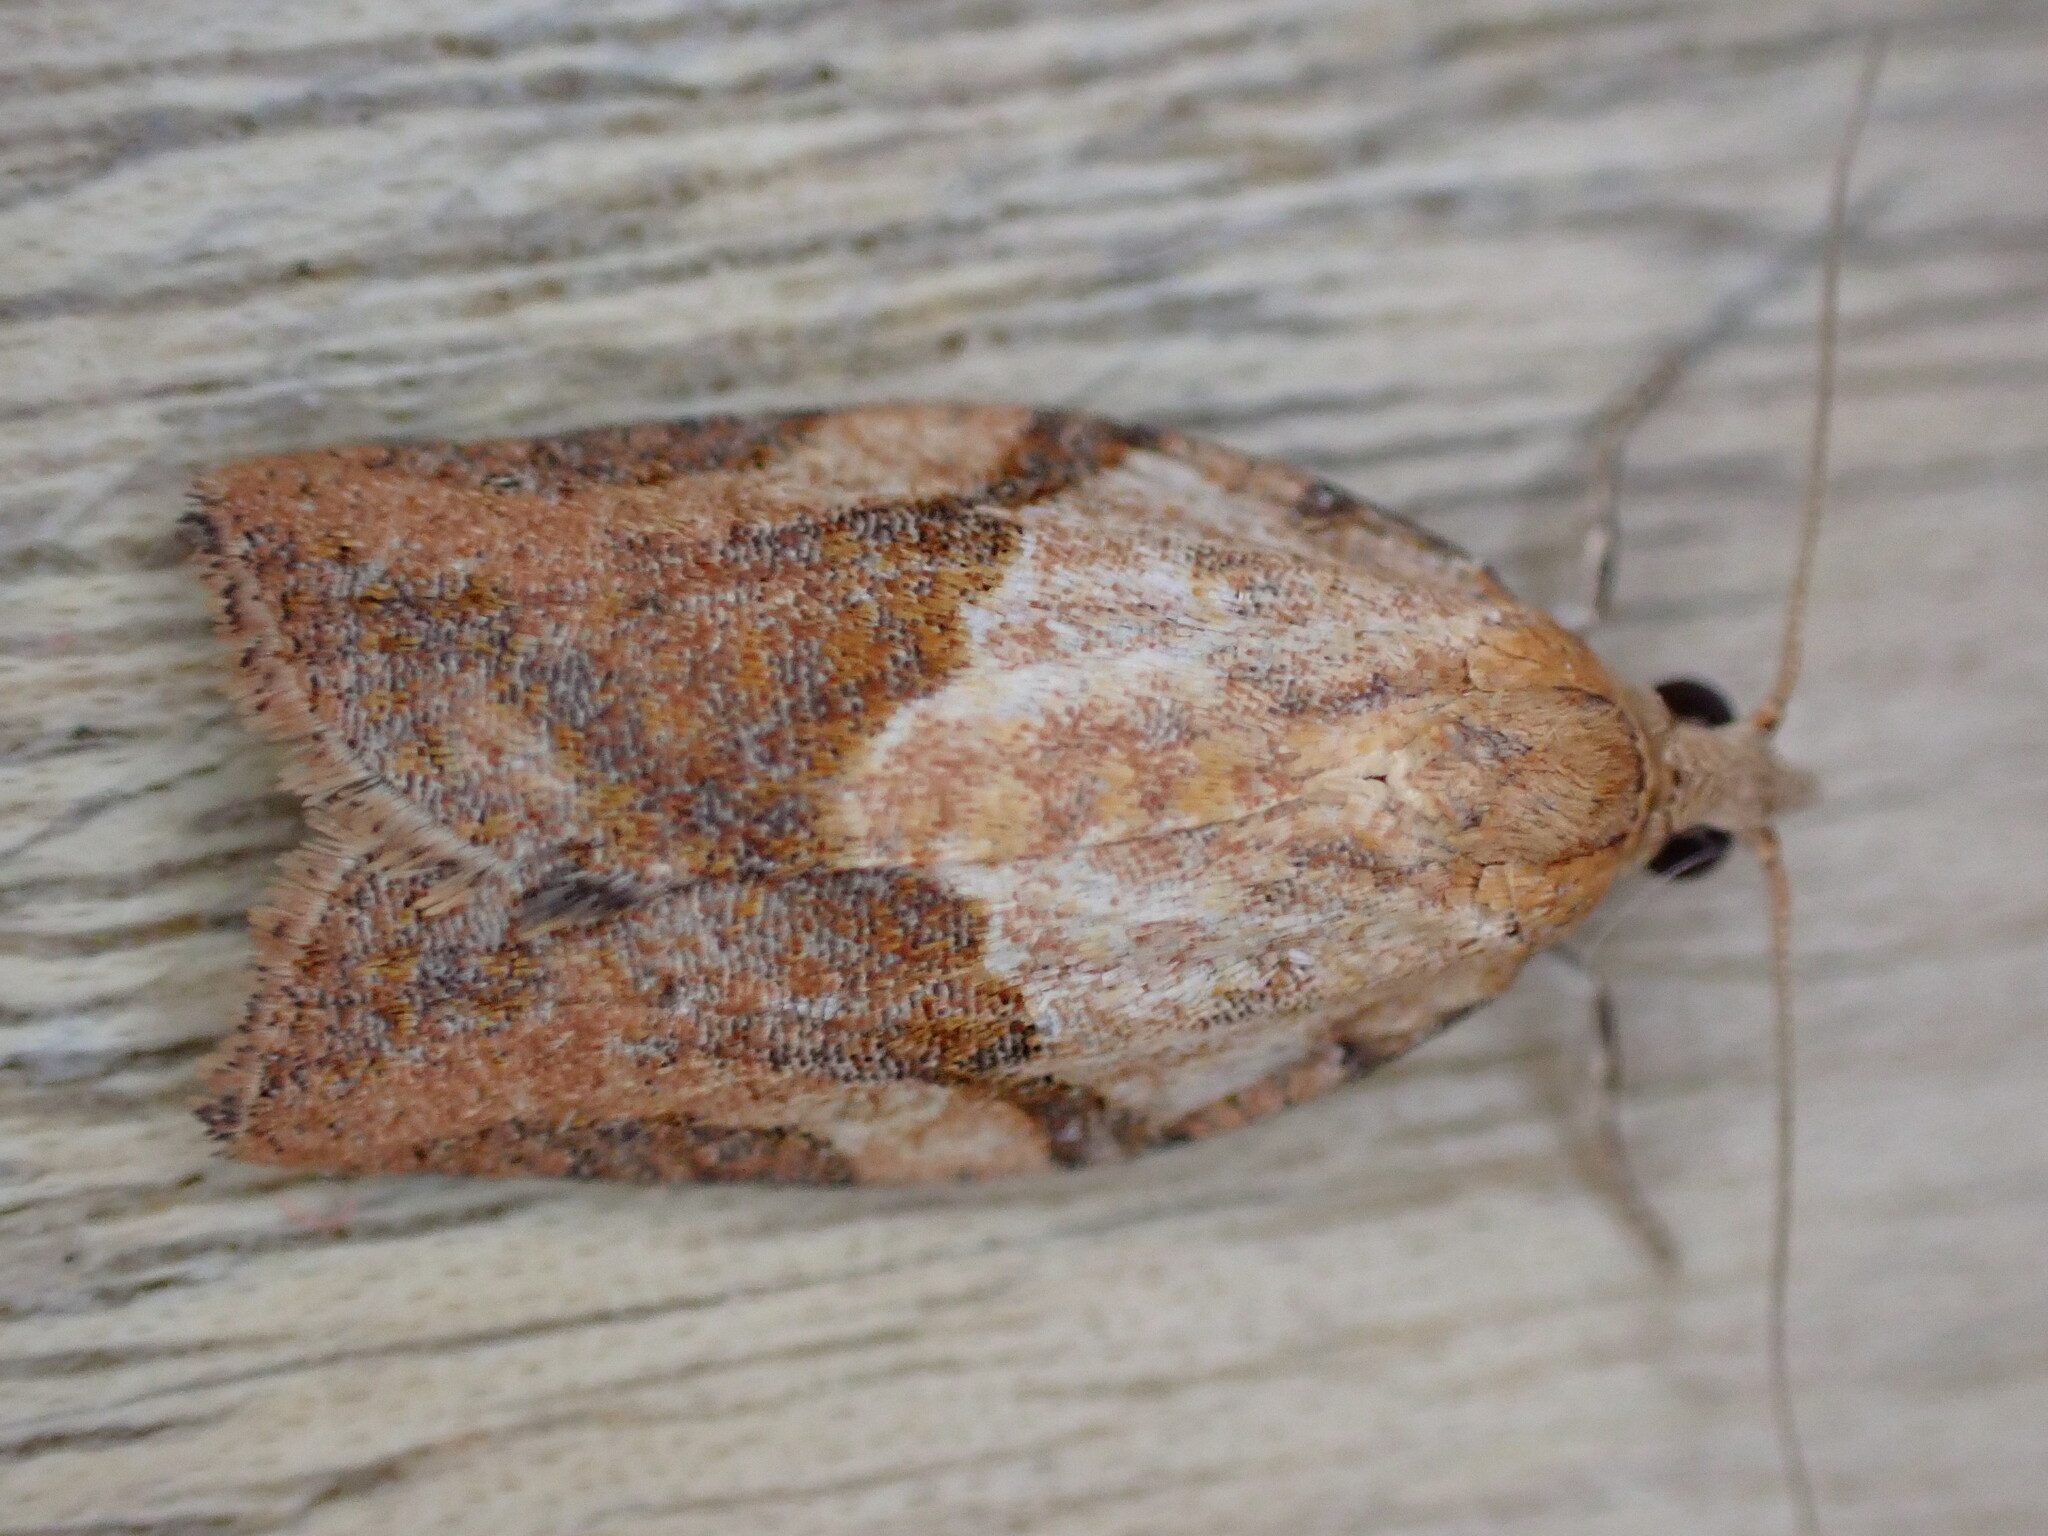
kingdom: Animalia
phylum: Arthropoda
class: Insecta
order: Lepidoptera
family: Tortricidae
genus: Epiphyas
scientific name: Epiphyas postvittana
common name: Light brown apple moth
